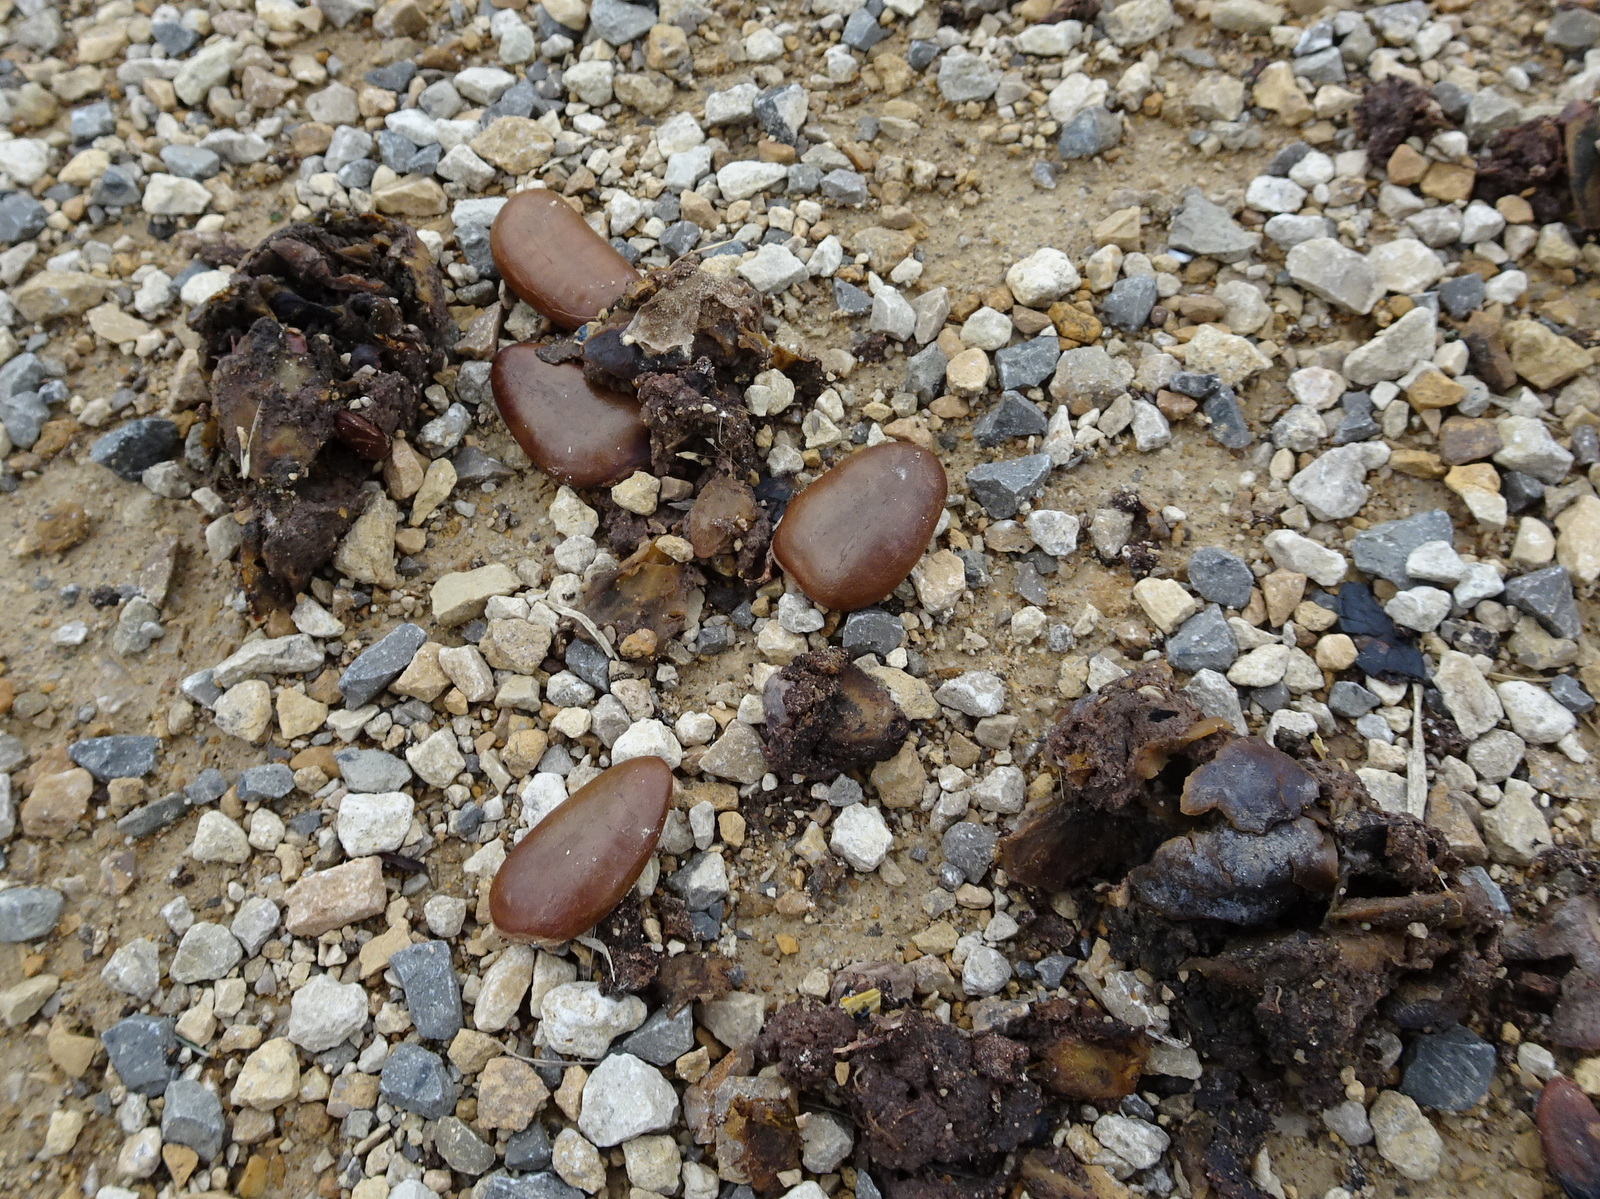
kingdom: Plantae
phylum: Tracheophyta
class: Magnoliopsida
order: Magnoliales
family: Annonaceae
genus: Asimina
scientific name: Asimina triloba
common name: Dog-banana
